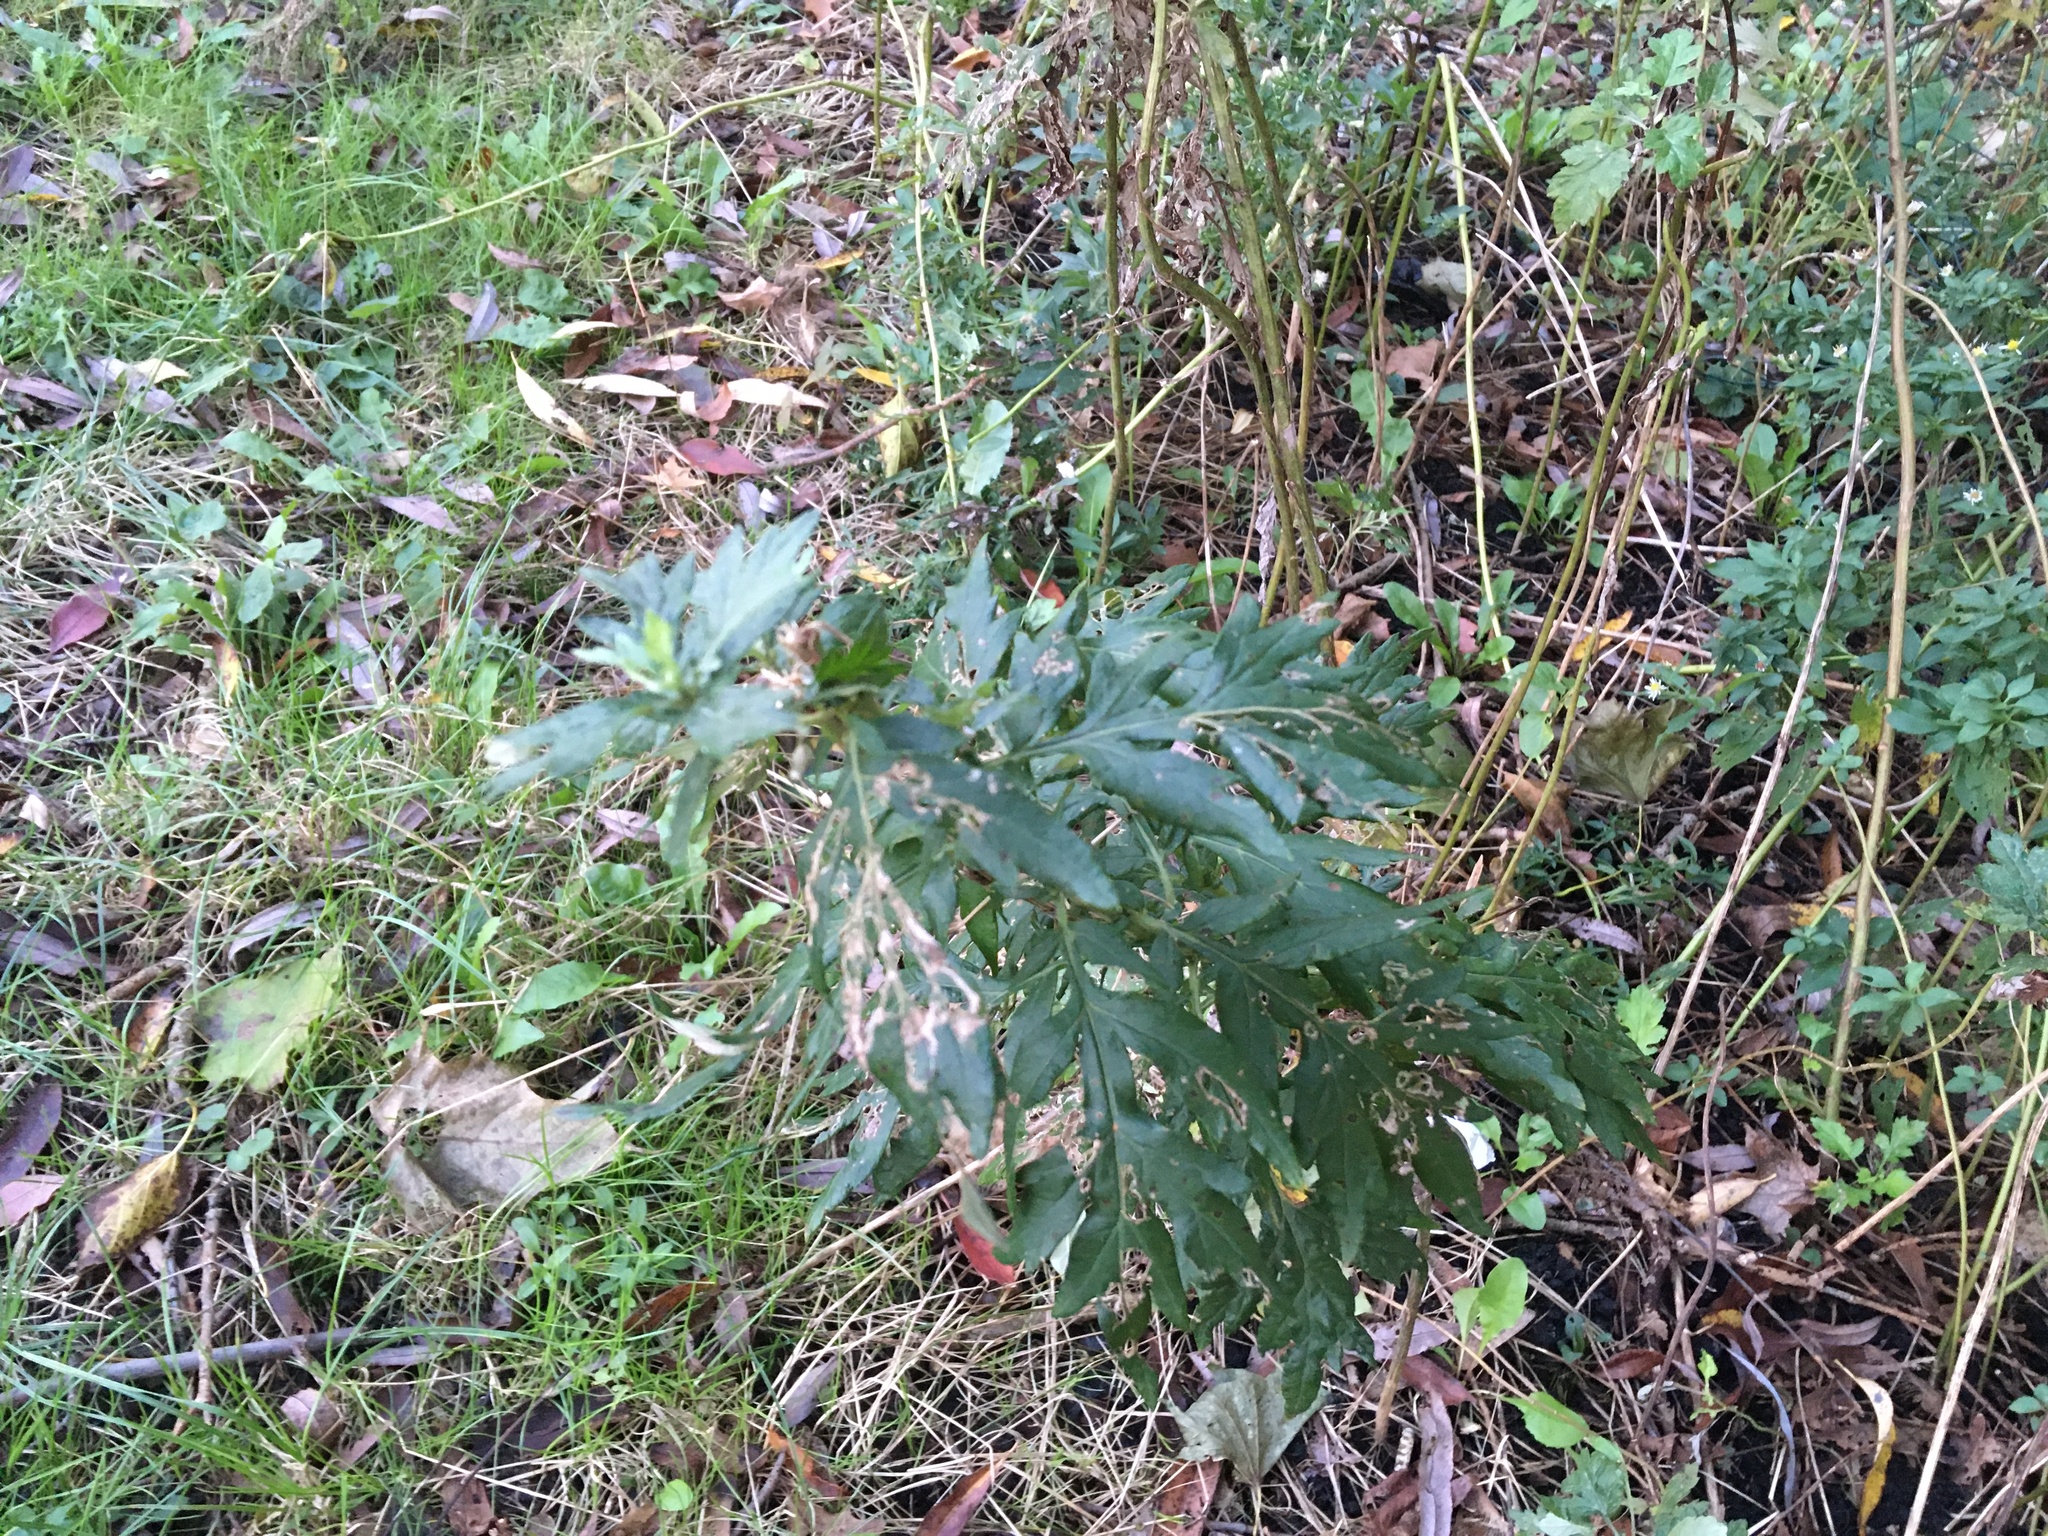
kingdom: Plantae
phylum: Tracheophyta
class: Magnoliopsida
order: Asterales
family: Asteraceae
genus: Artemisia
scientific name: Artemisia vulgaris
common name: Mugwort
